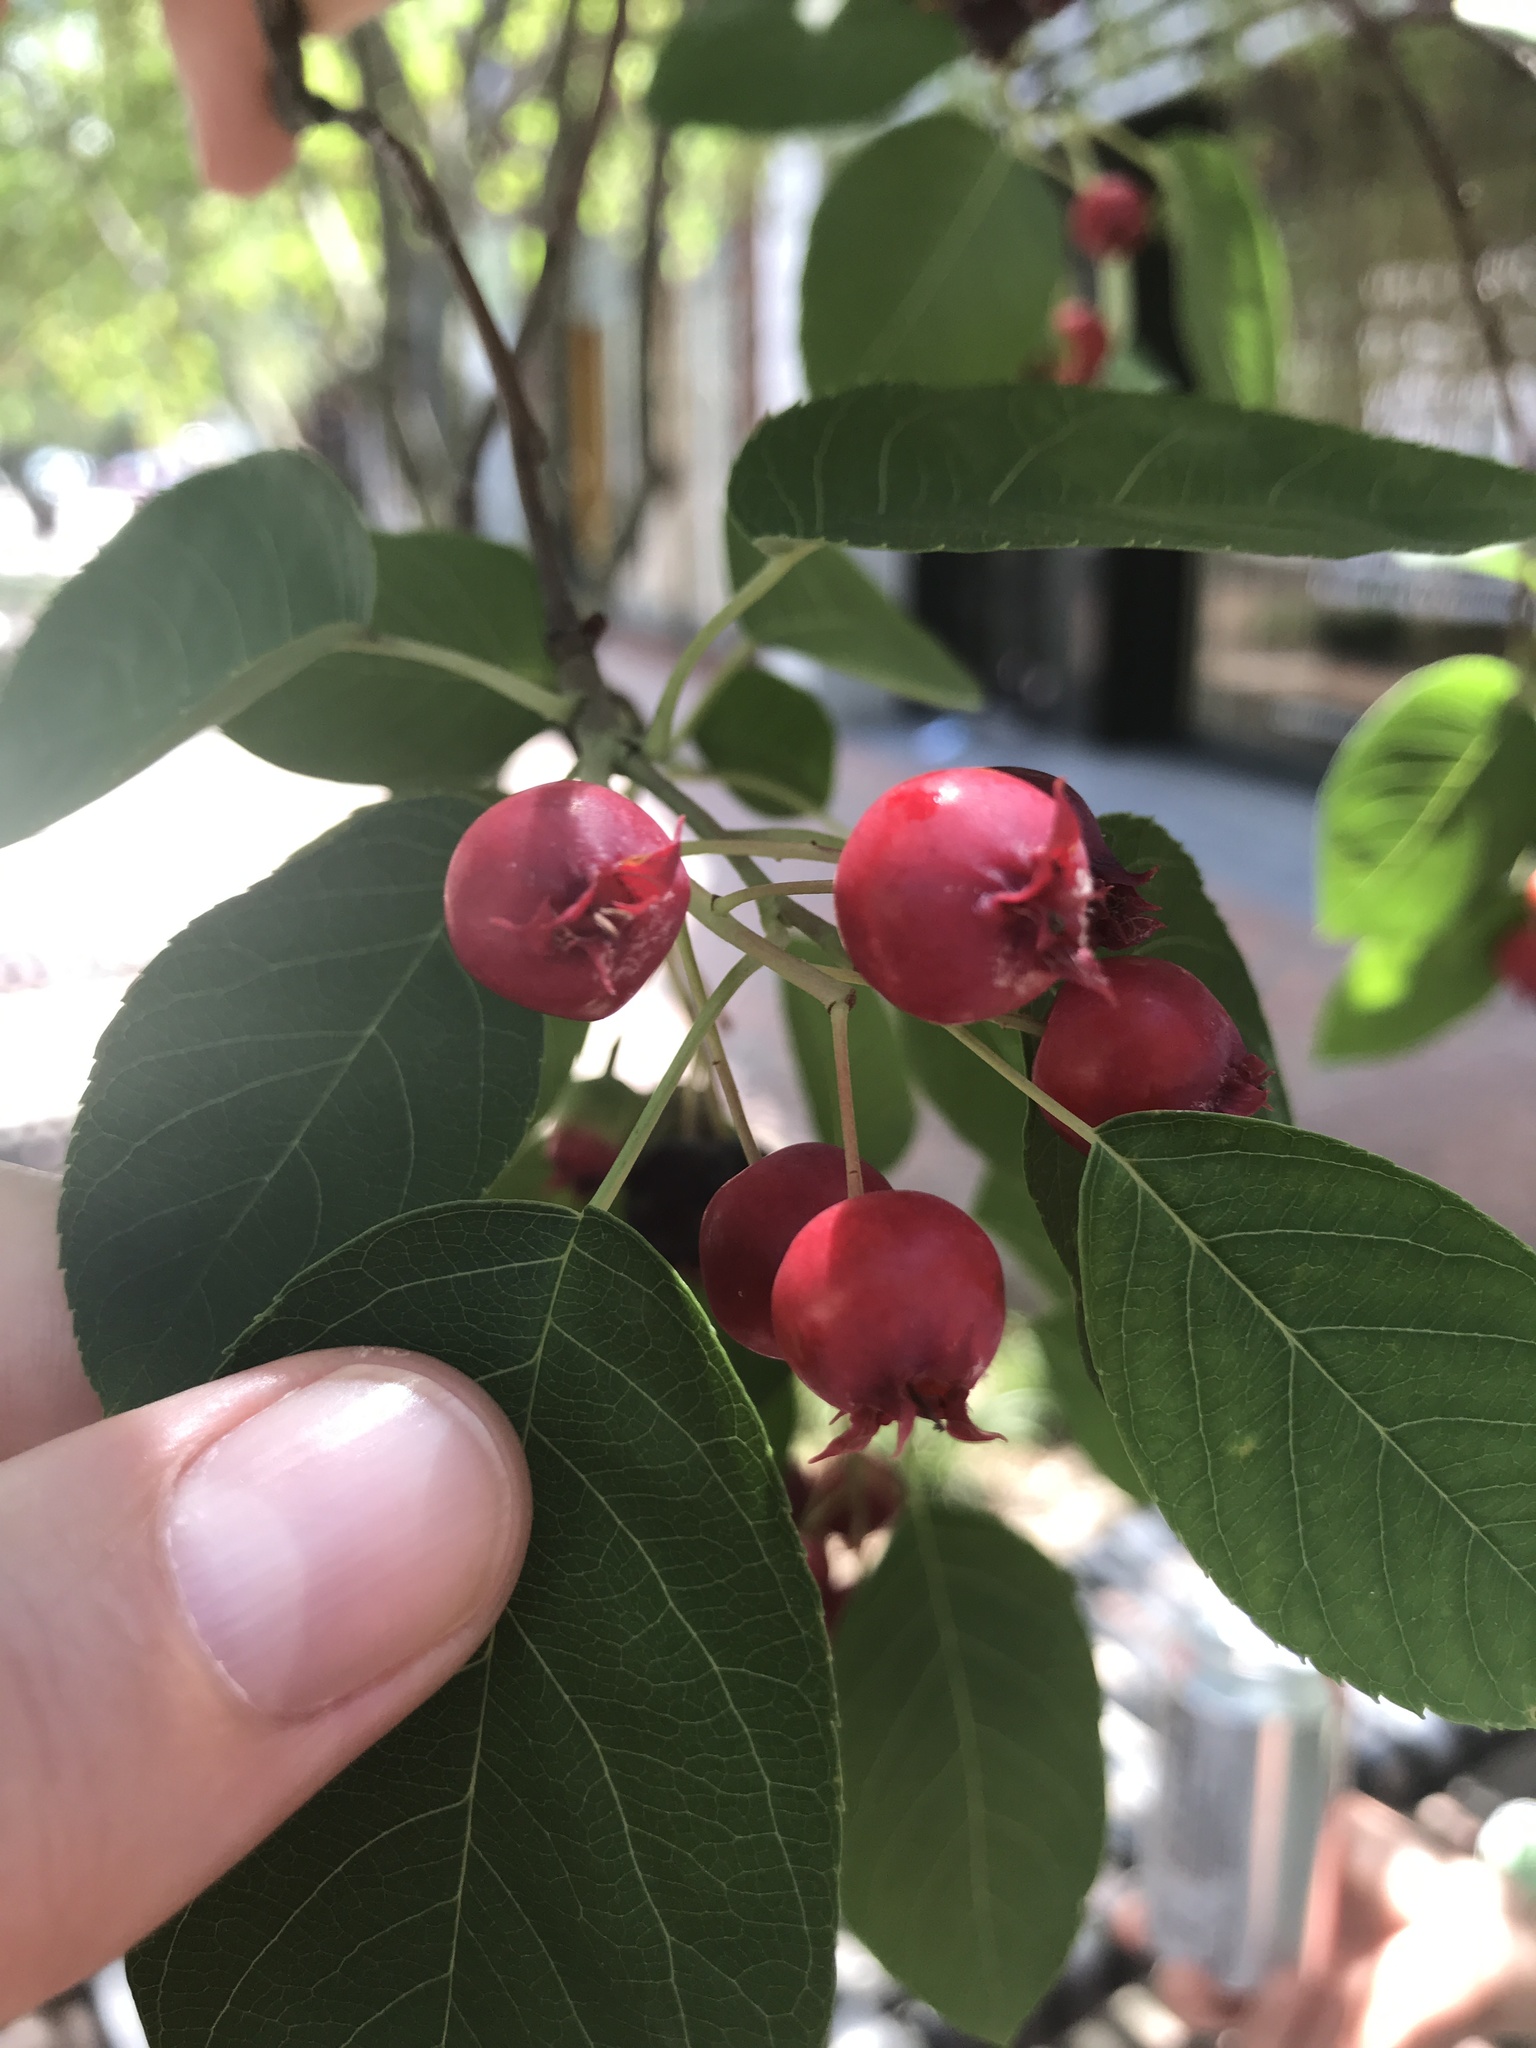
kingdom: Plantae
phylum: Tracheophyta
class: Magnoliopsida
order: Rosales
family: Rosaceae
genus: Amelanchier
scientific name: Amelanchier arborea
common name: Downy serviceberry
